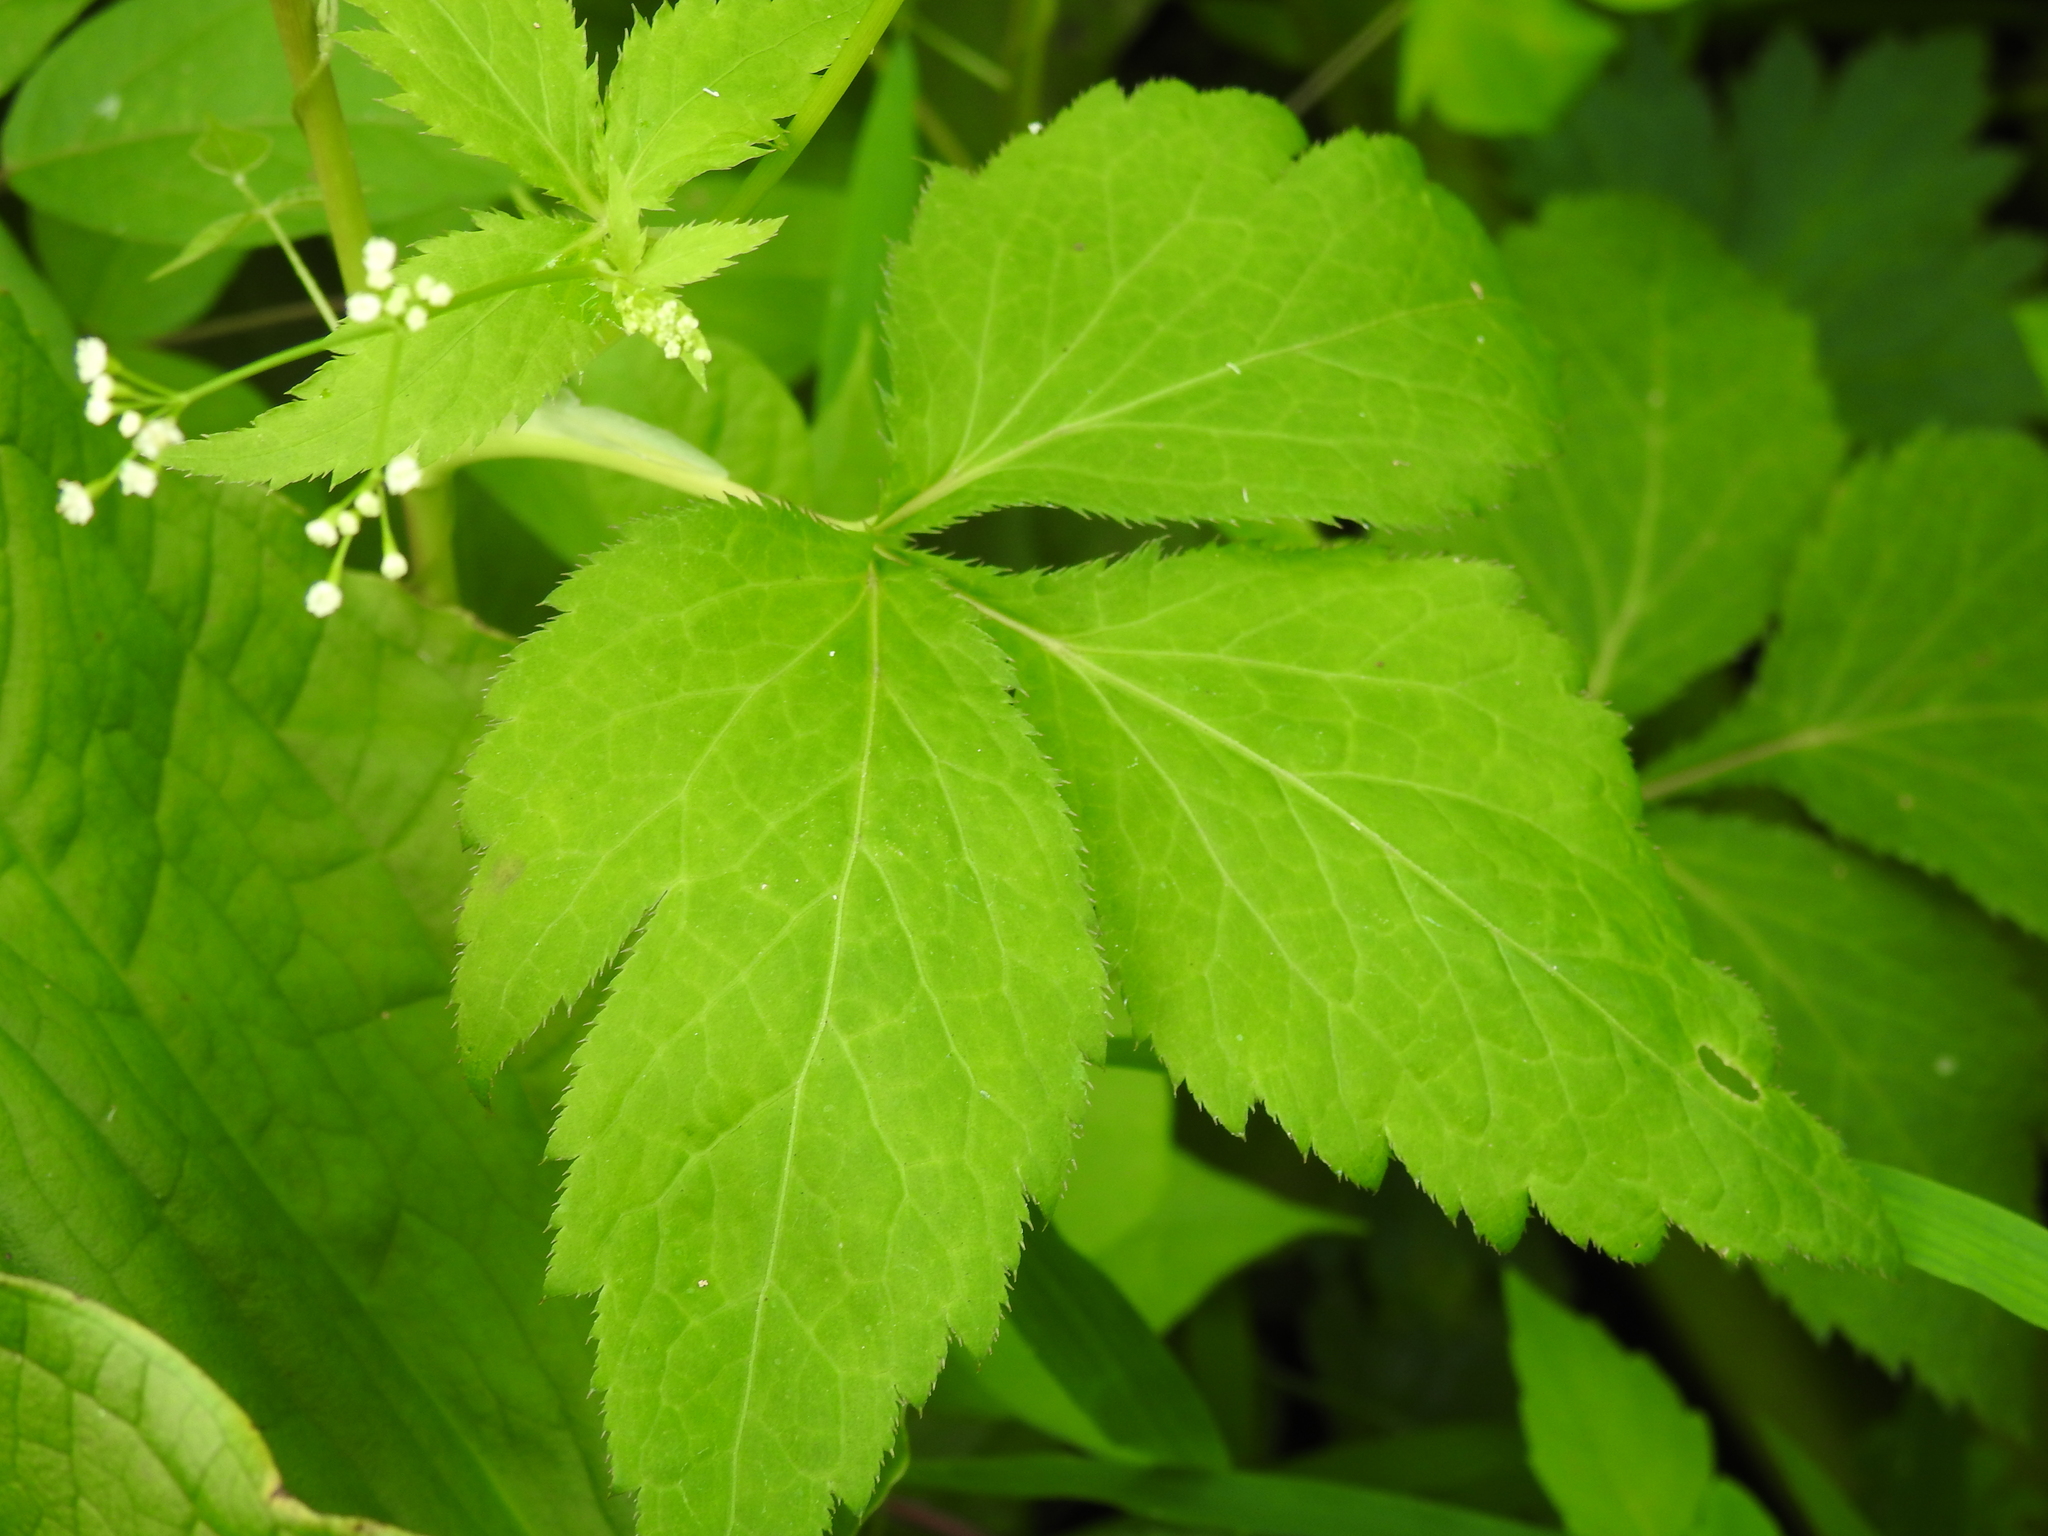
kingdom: Plantae
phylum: Tracheophyta
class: Magnoliopsida
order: Apiales
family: Apiaceae
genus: Cryptotaenia
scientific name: Cryptotaenia canadensis
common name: Honewort
